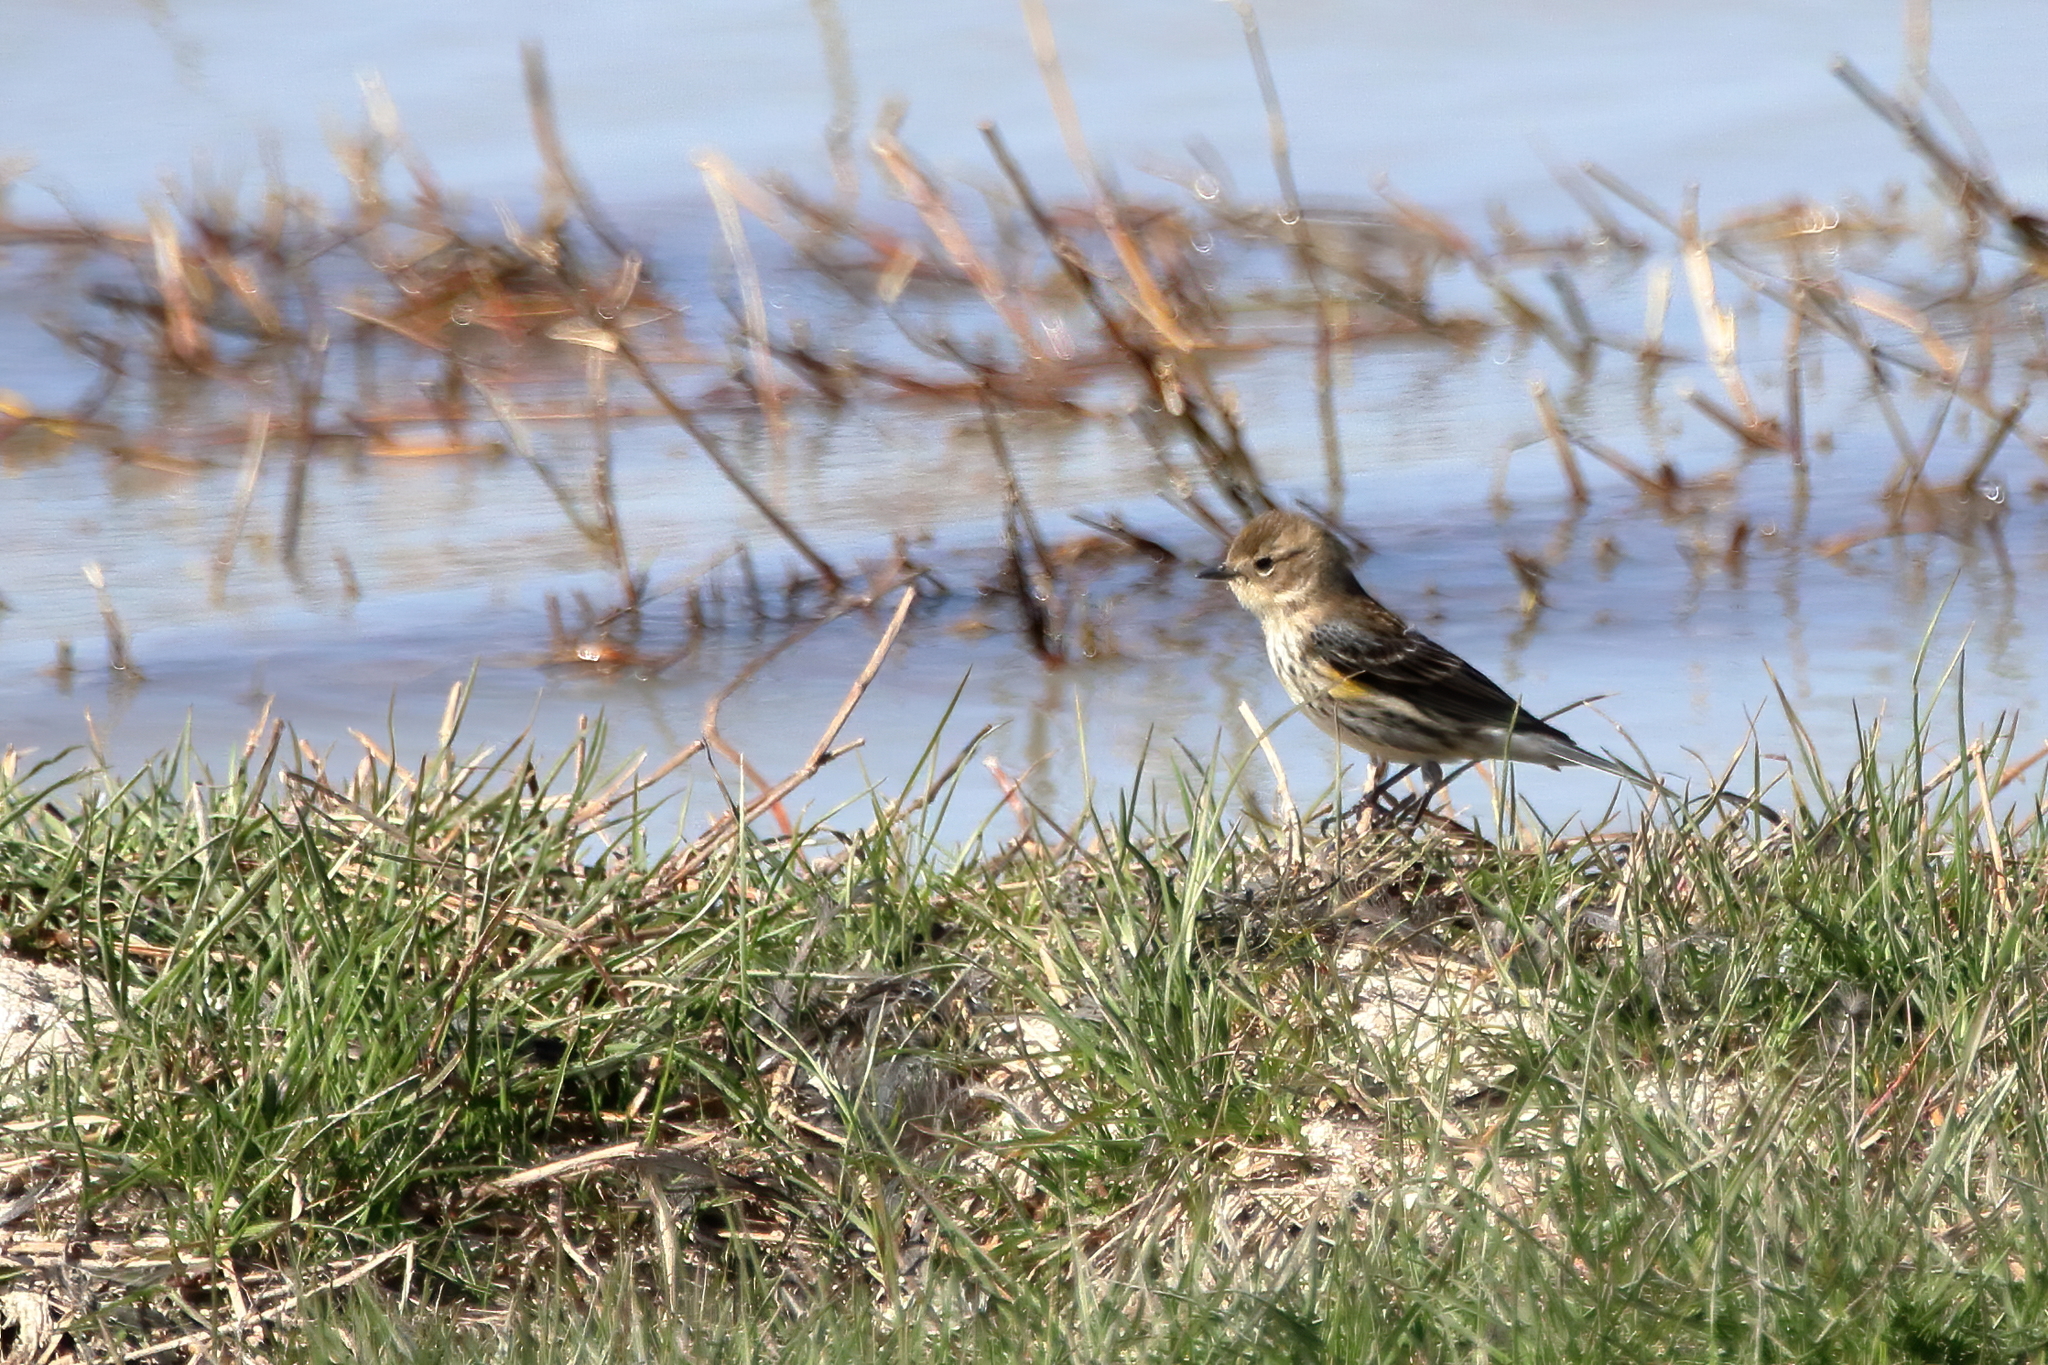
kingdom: Animalia
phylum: Chordata
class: Aves
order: Passeriformes
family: Parulidae
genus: Setophaga
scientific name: Setophaga coronata
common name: Myrtle warbler
